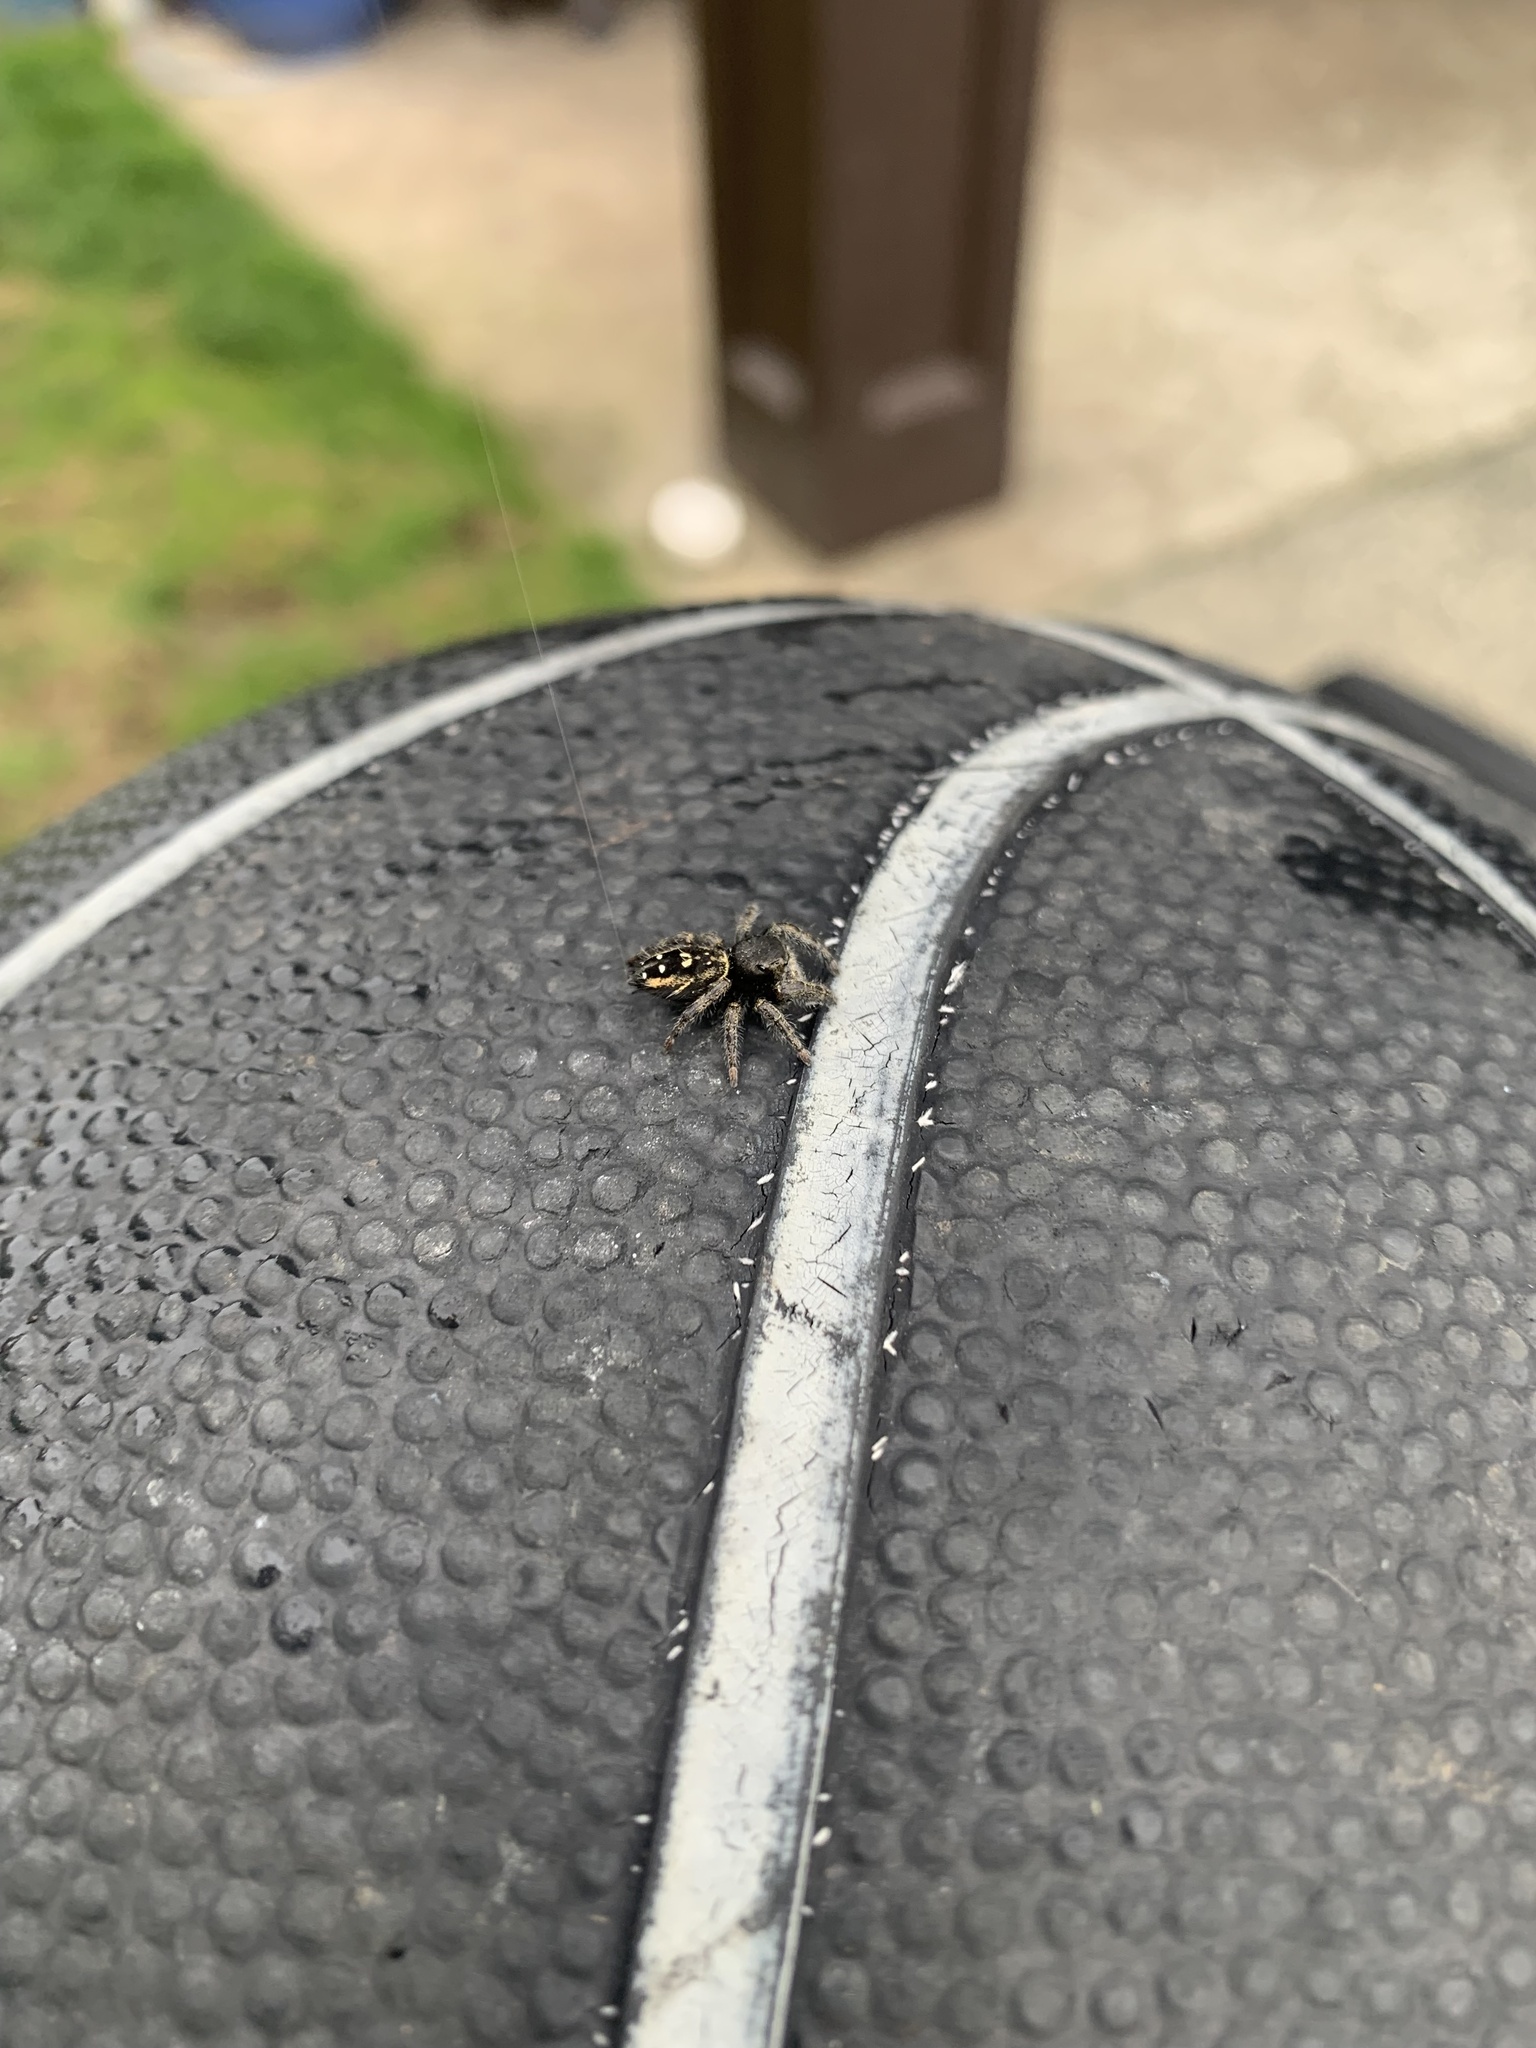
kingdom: Animalia
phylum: Arthropoda
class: Arachnida
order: Araneae
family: Salticidae
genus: Phidippus
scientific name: Phidippus johnsoni
